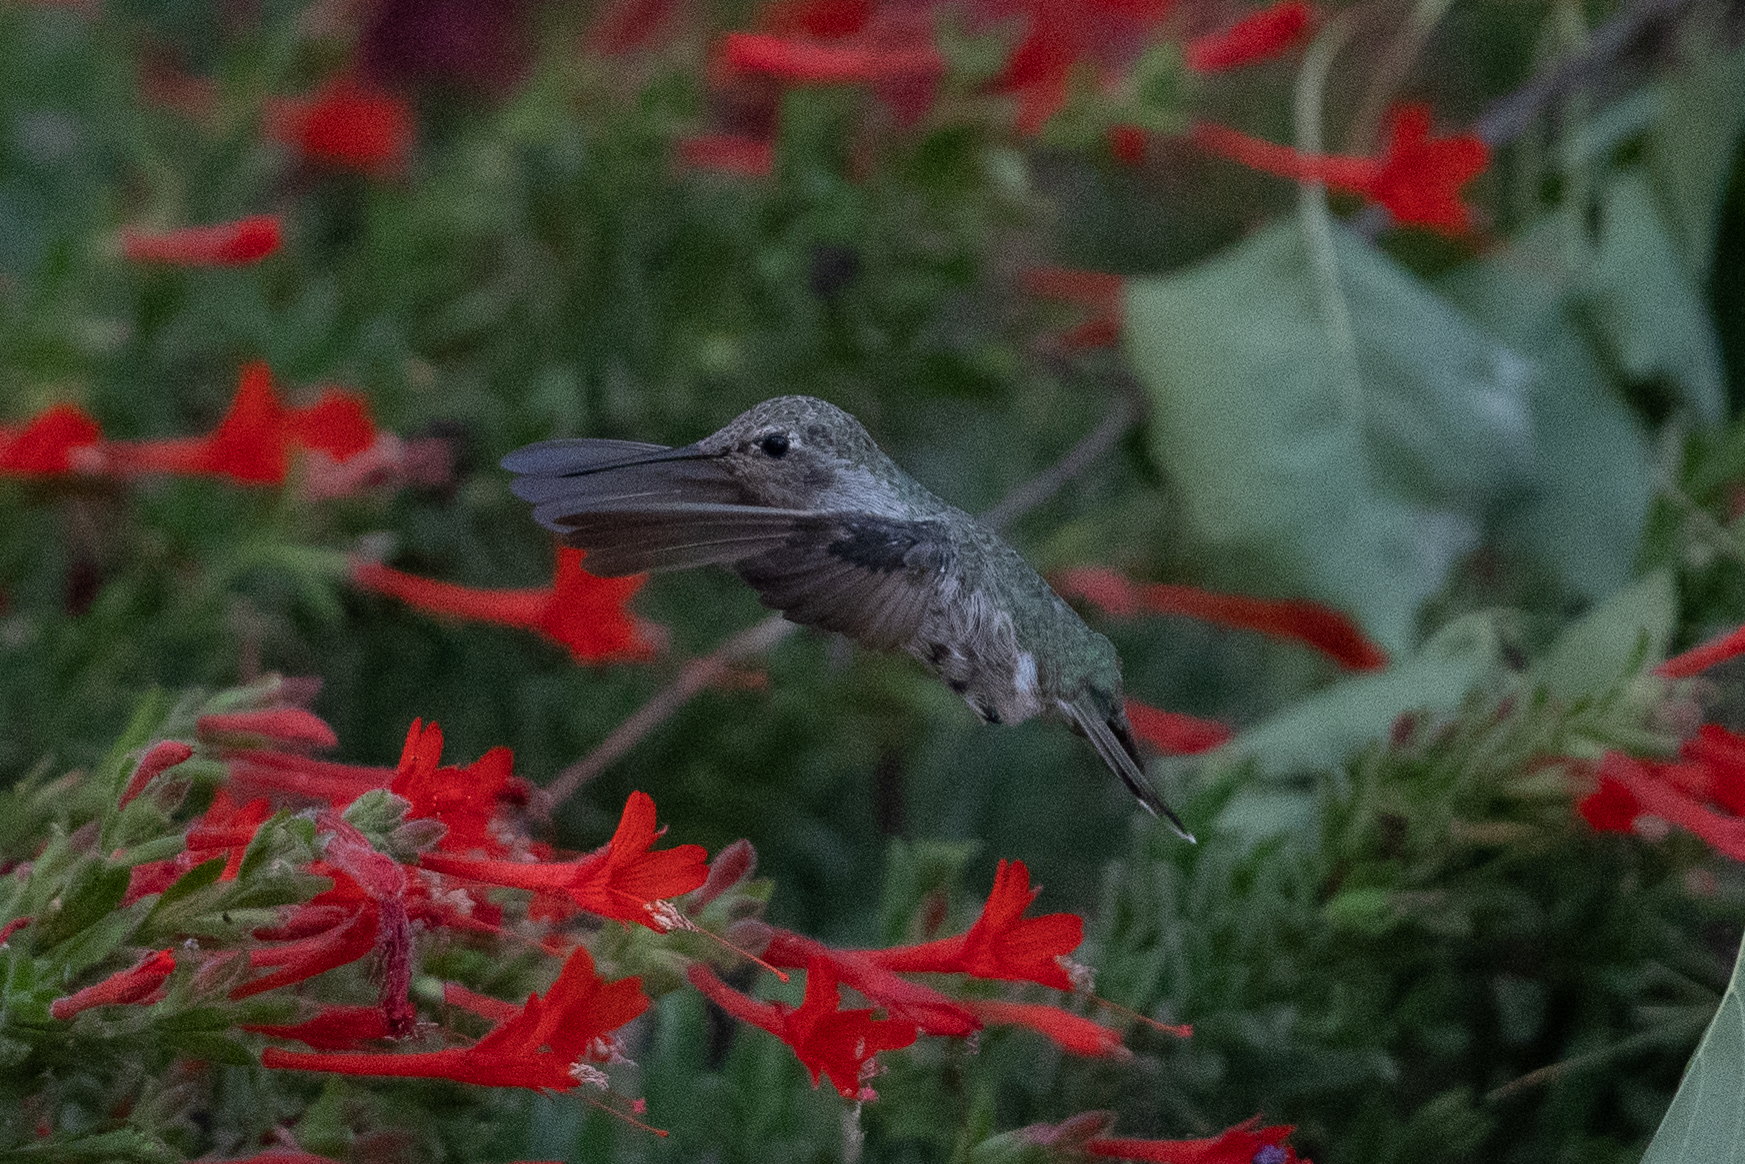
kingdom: Animalia
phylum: Chordata
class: Aves
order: Apodiformes
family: Trochilidae
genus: Calypte
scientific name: Calypte anna
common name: Anna's hummingbird
